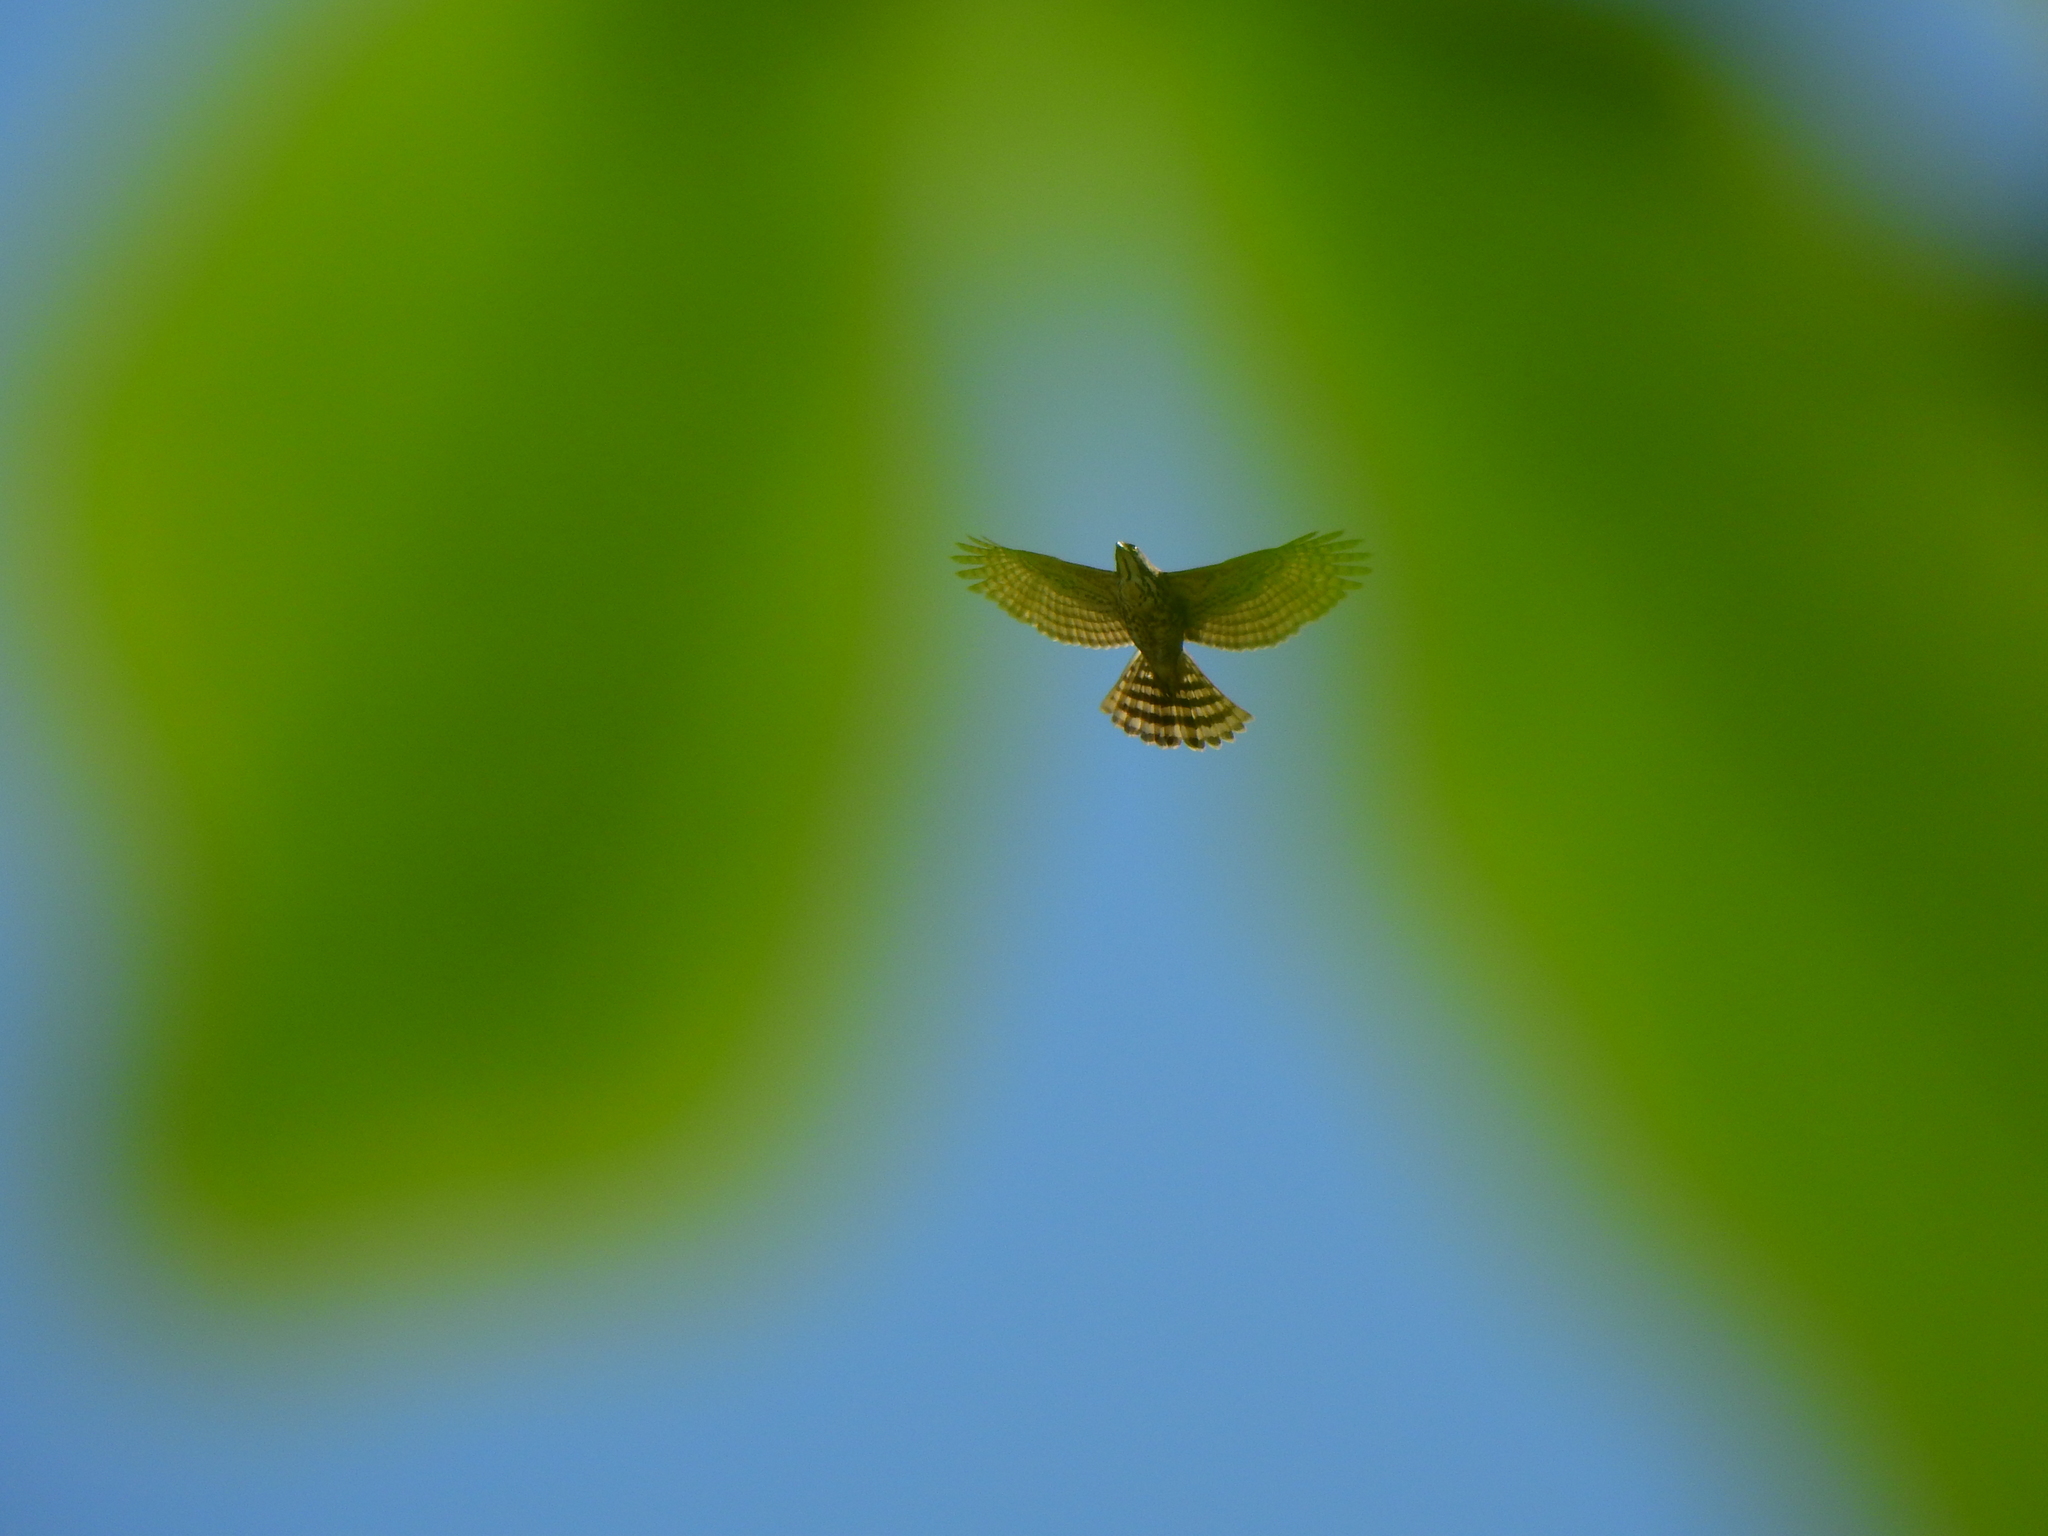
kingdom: Animalia
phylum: Chordata
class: Aves
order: Accipitriformes
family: Accipitridae
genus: Accipiter
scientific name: Accipiter trivirgatus
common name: Crested goshawk
